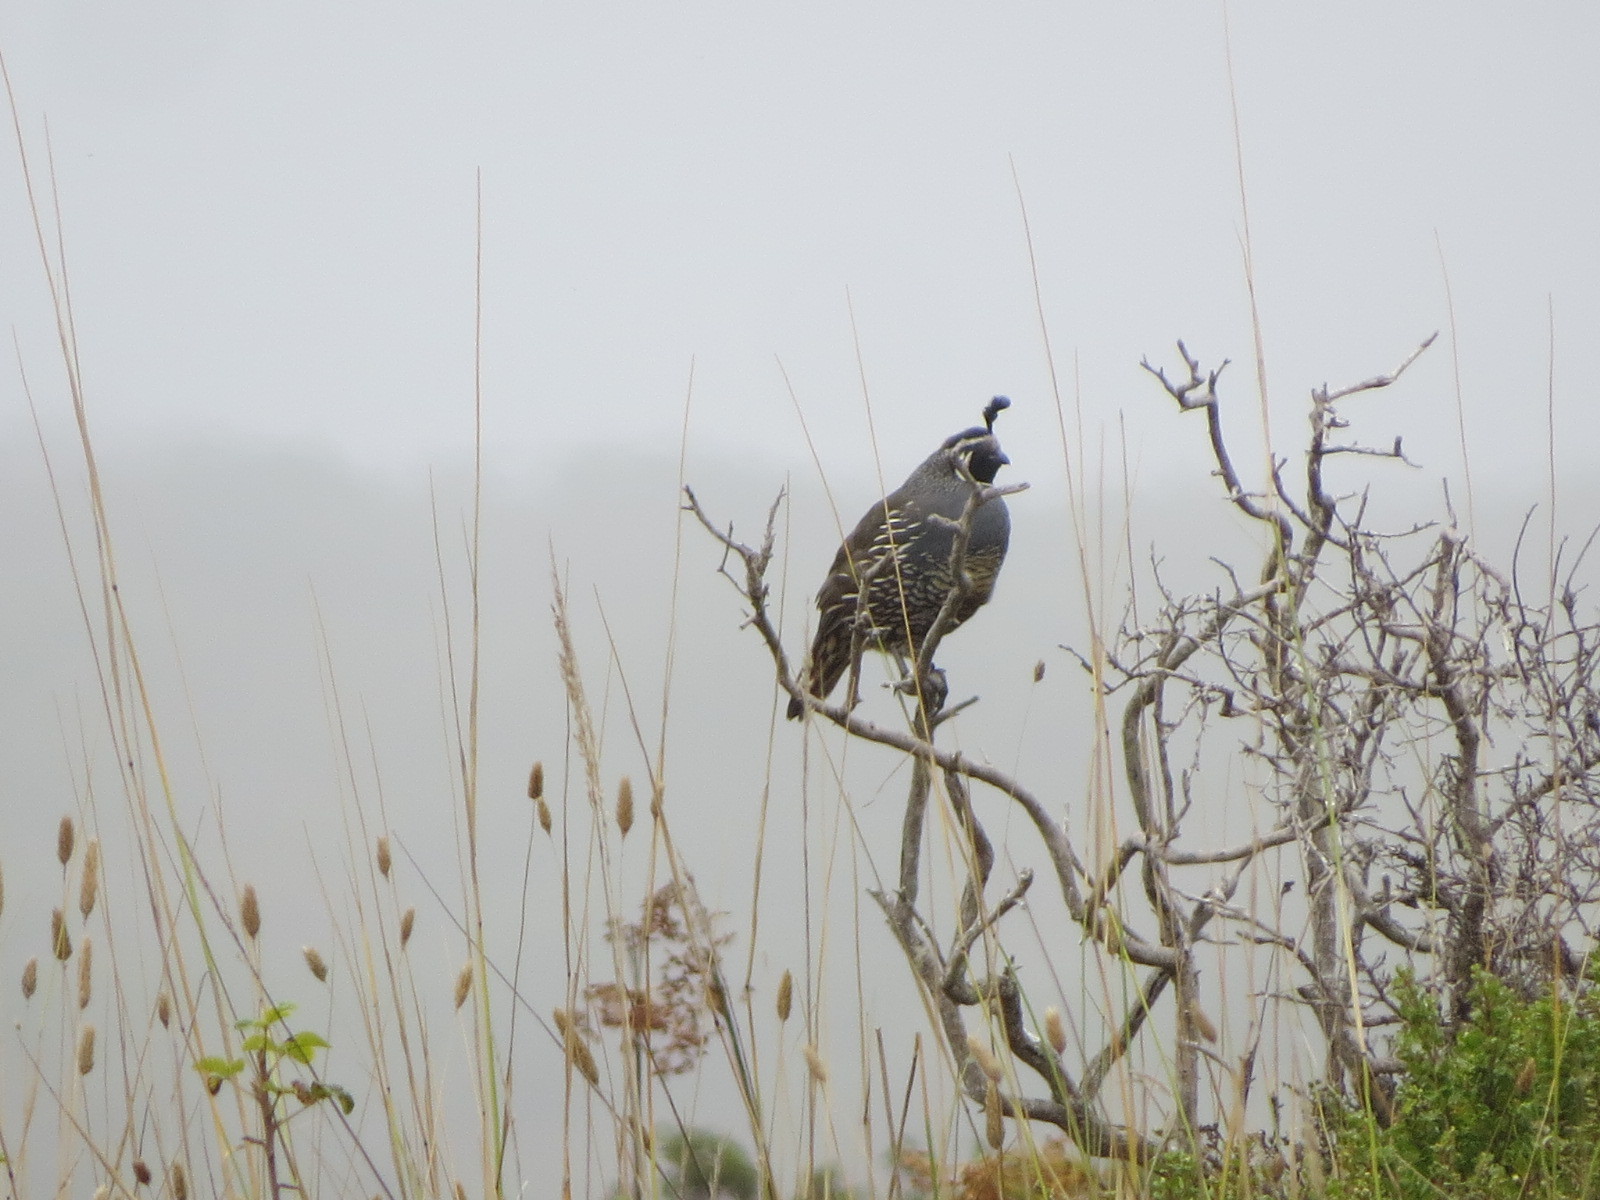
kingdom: Animalia
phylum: Chordata
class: Aves
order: Galliformes
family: Odontophoridae
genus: Callipepla
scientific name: Callipepla californica
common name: California quail
